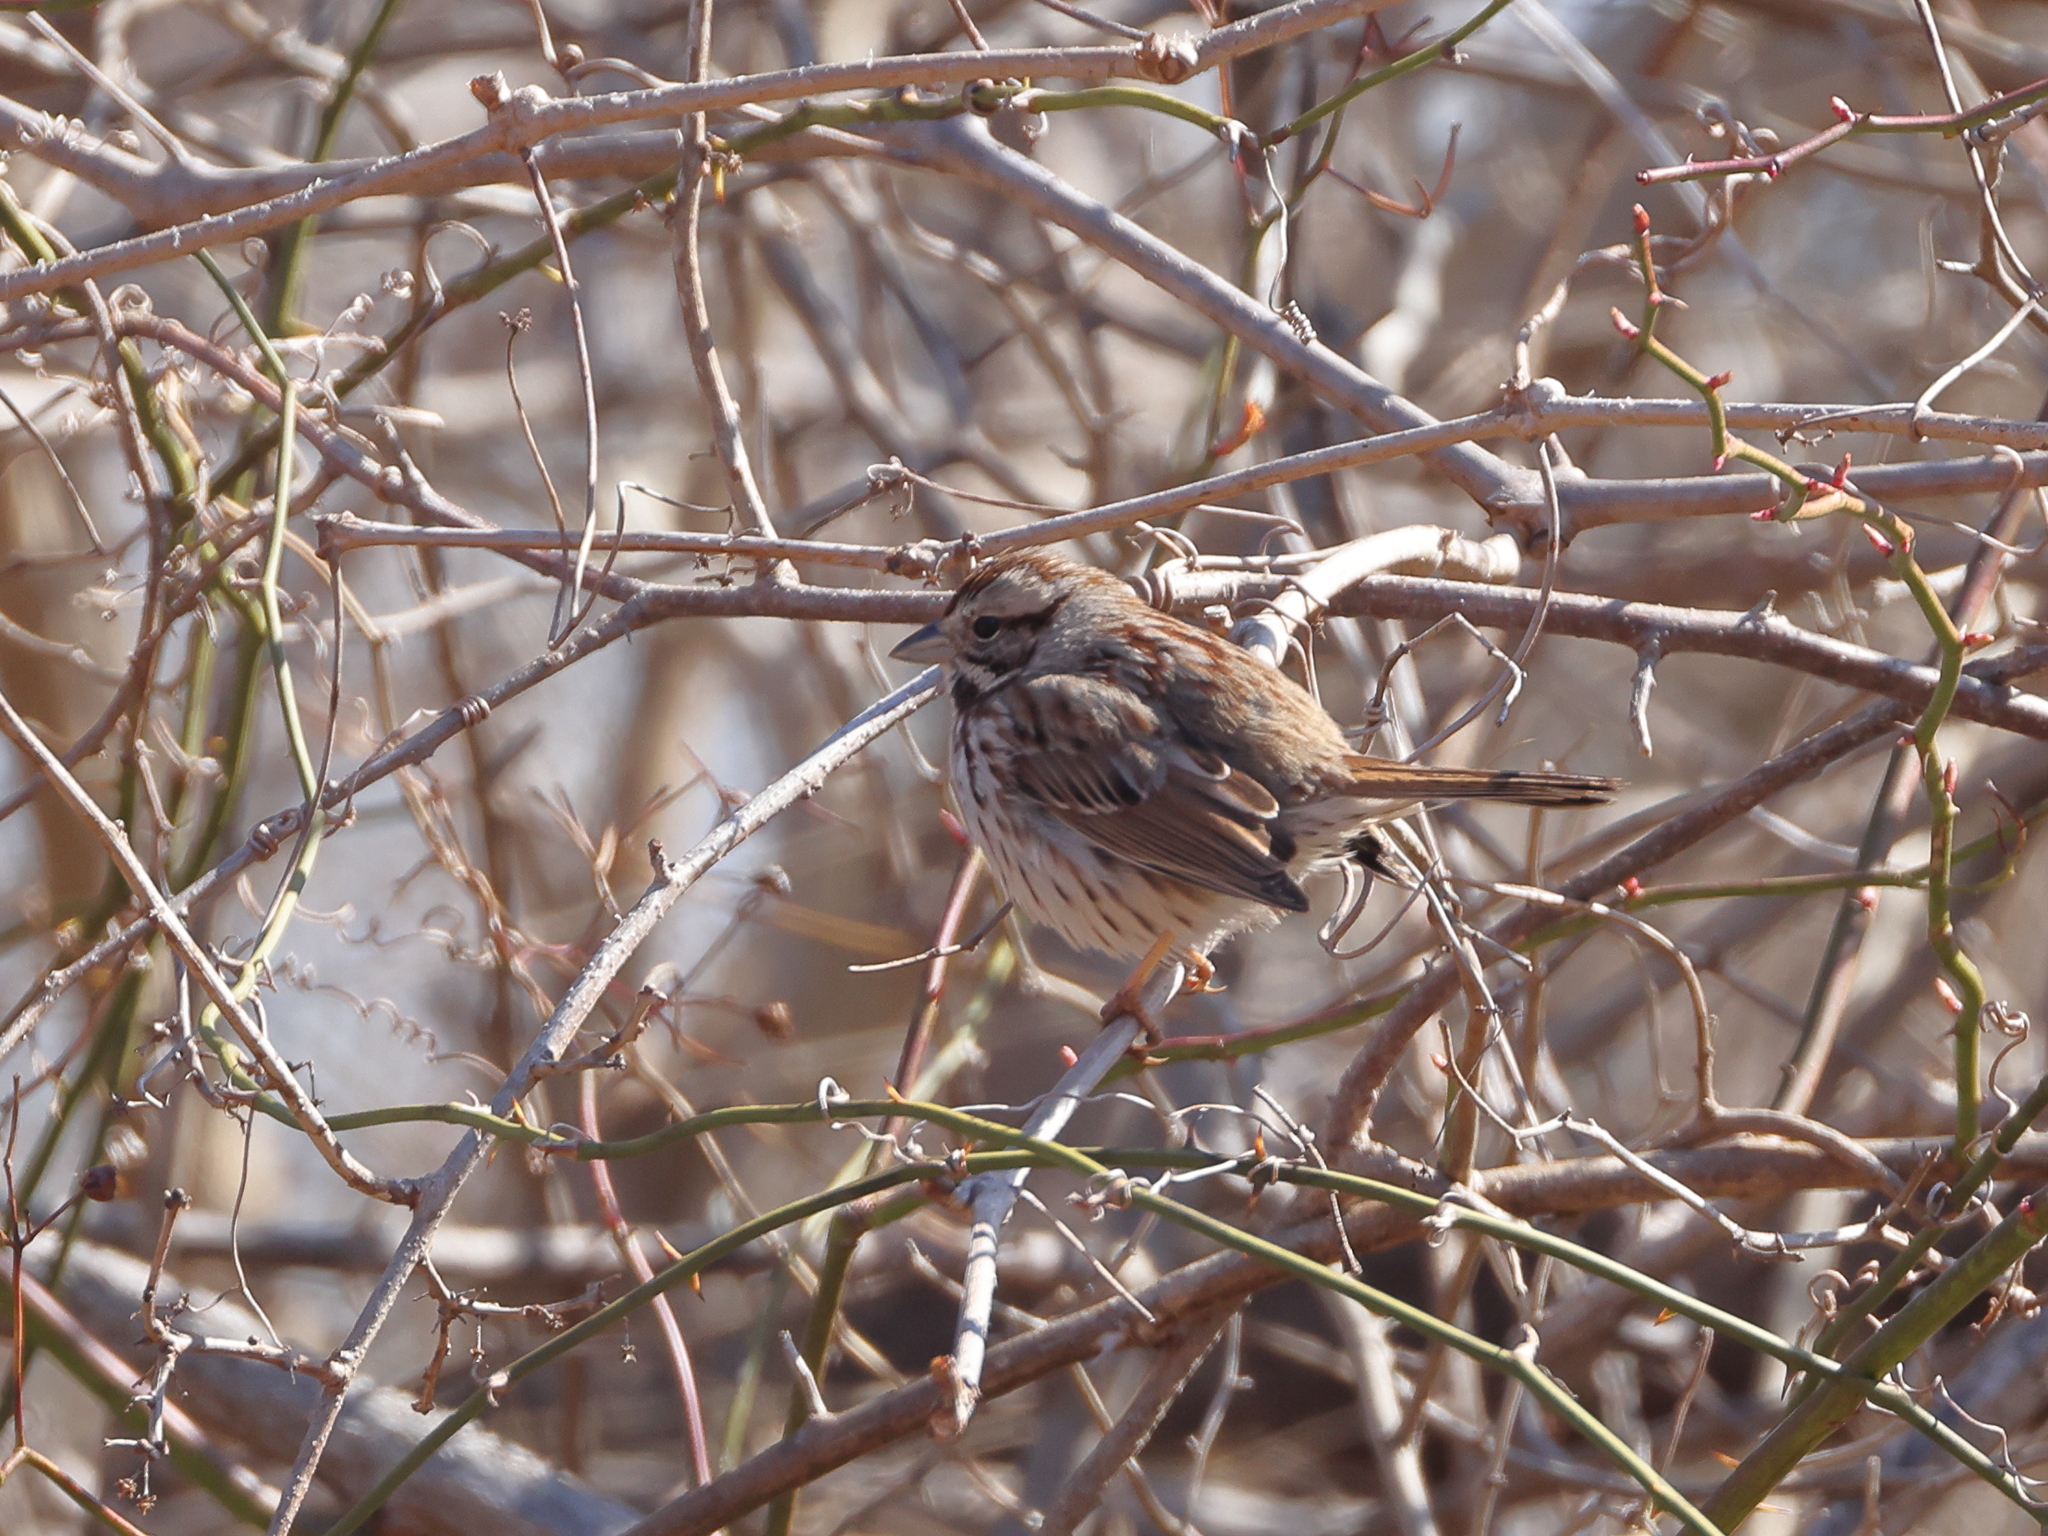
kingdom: Animalia
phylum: Chordata
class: Aves
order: Passeriformes
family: Passerellidae
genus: Melospiza
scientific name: Melospiza melodia
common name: Song sparrow
